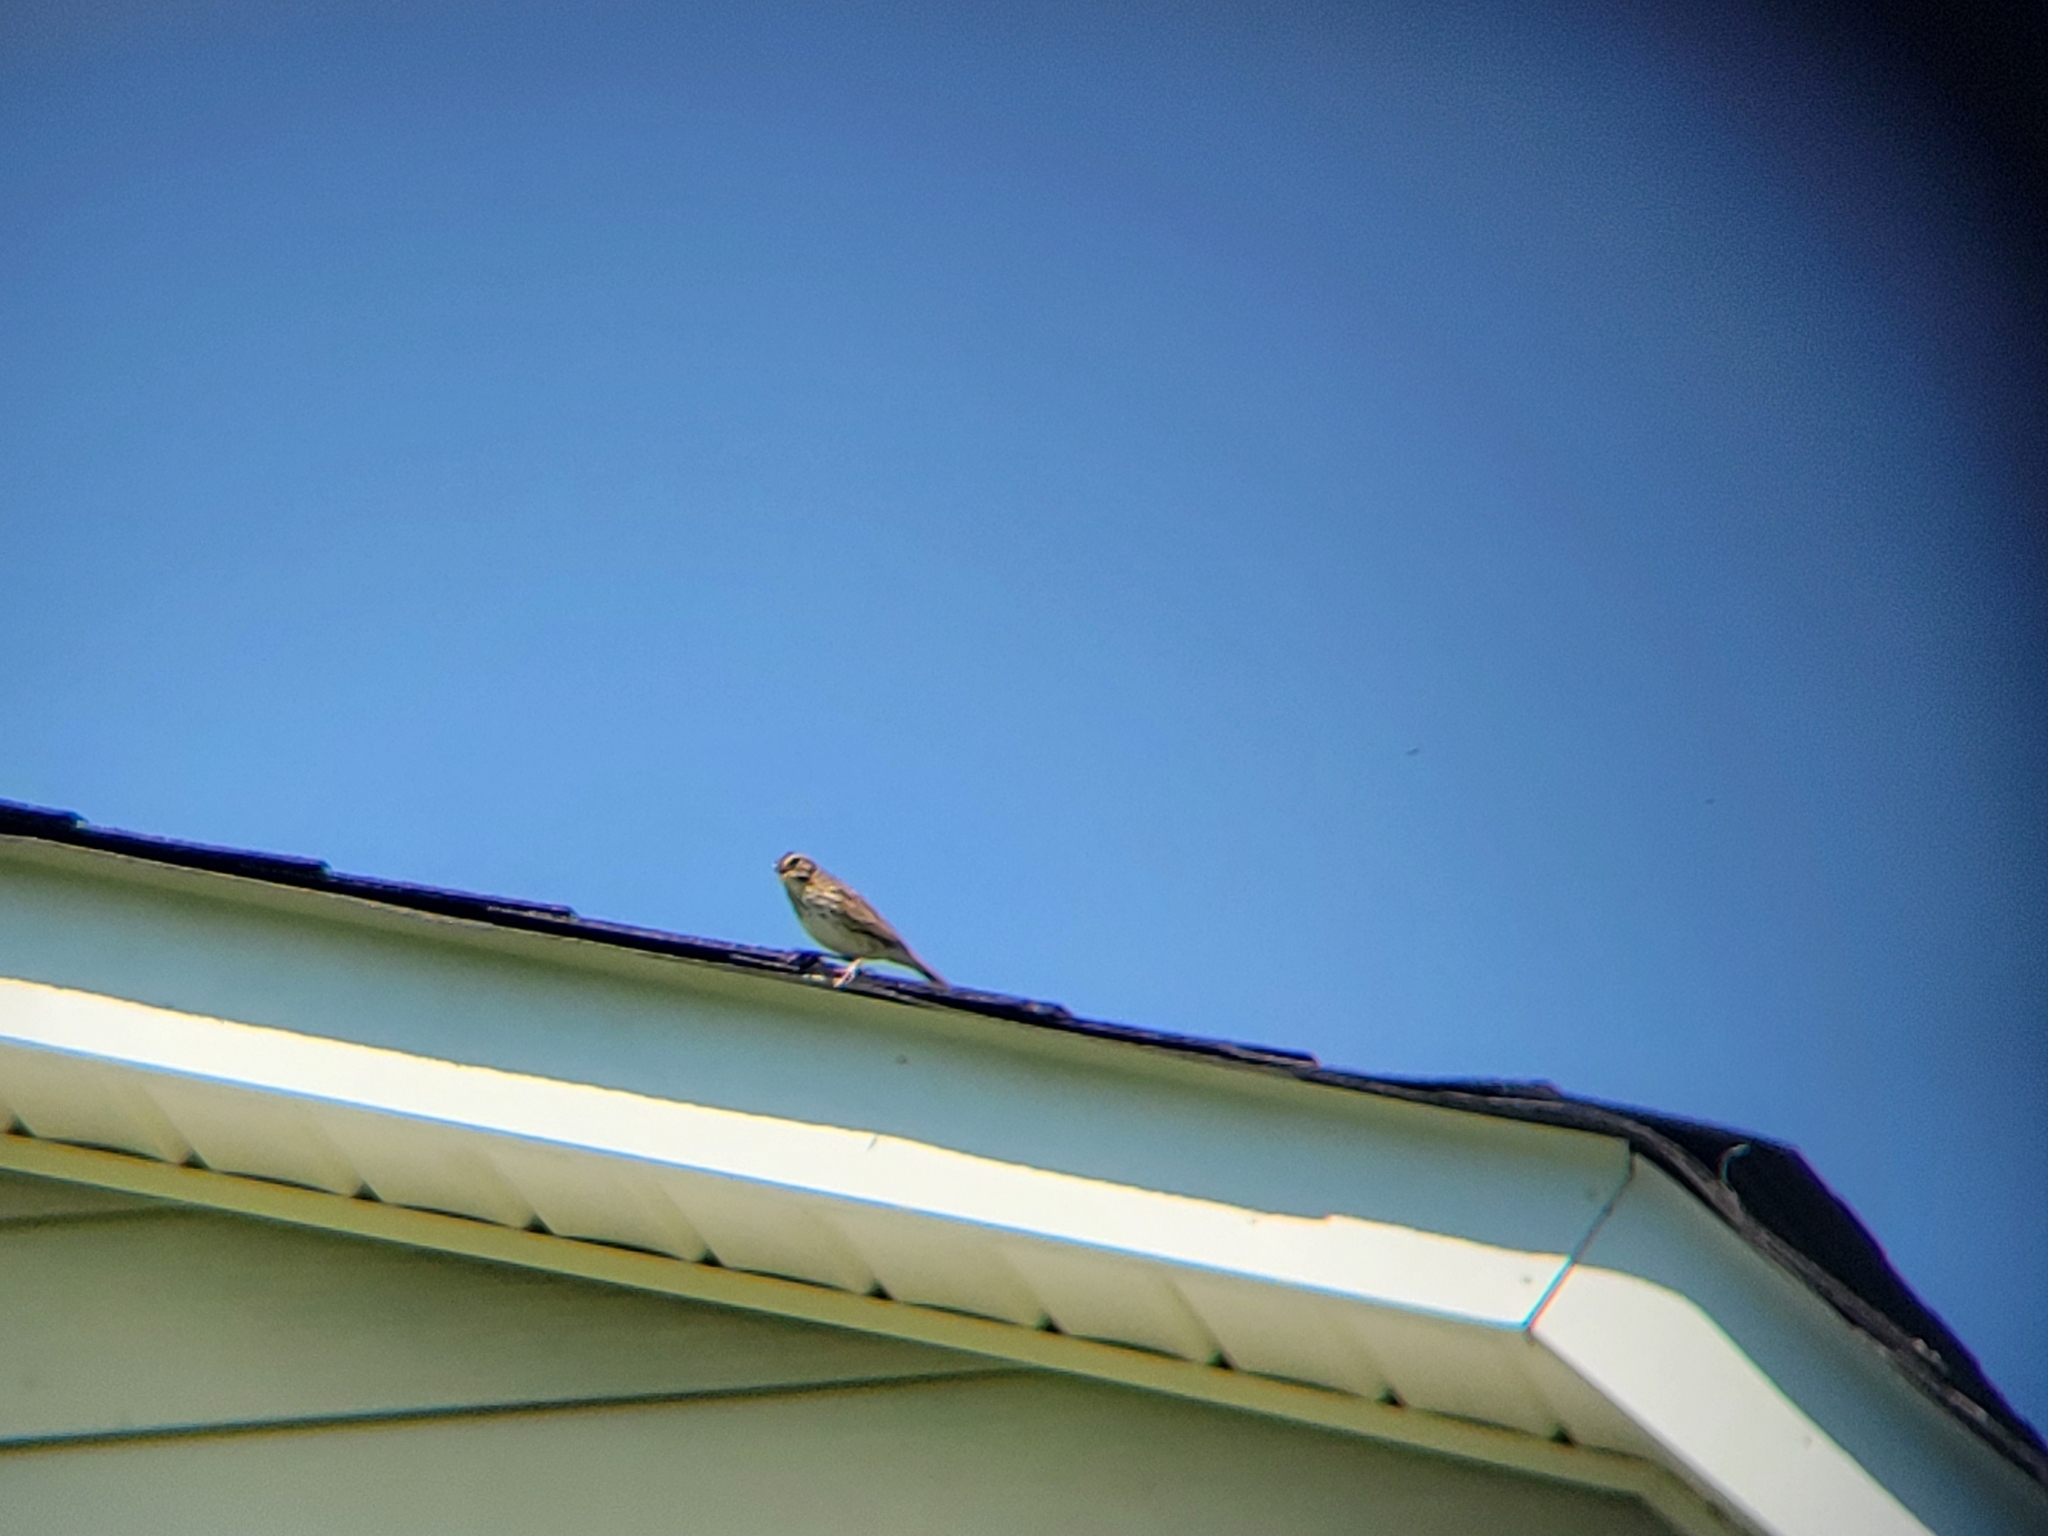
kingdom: Animalia
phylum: Chordata
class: Aves
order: Passeriformes
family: Passerellidae
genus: Passerculus
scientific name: Passerculus sandwichensis
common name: Savannah sparrow
